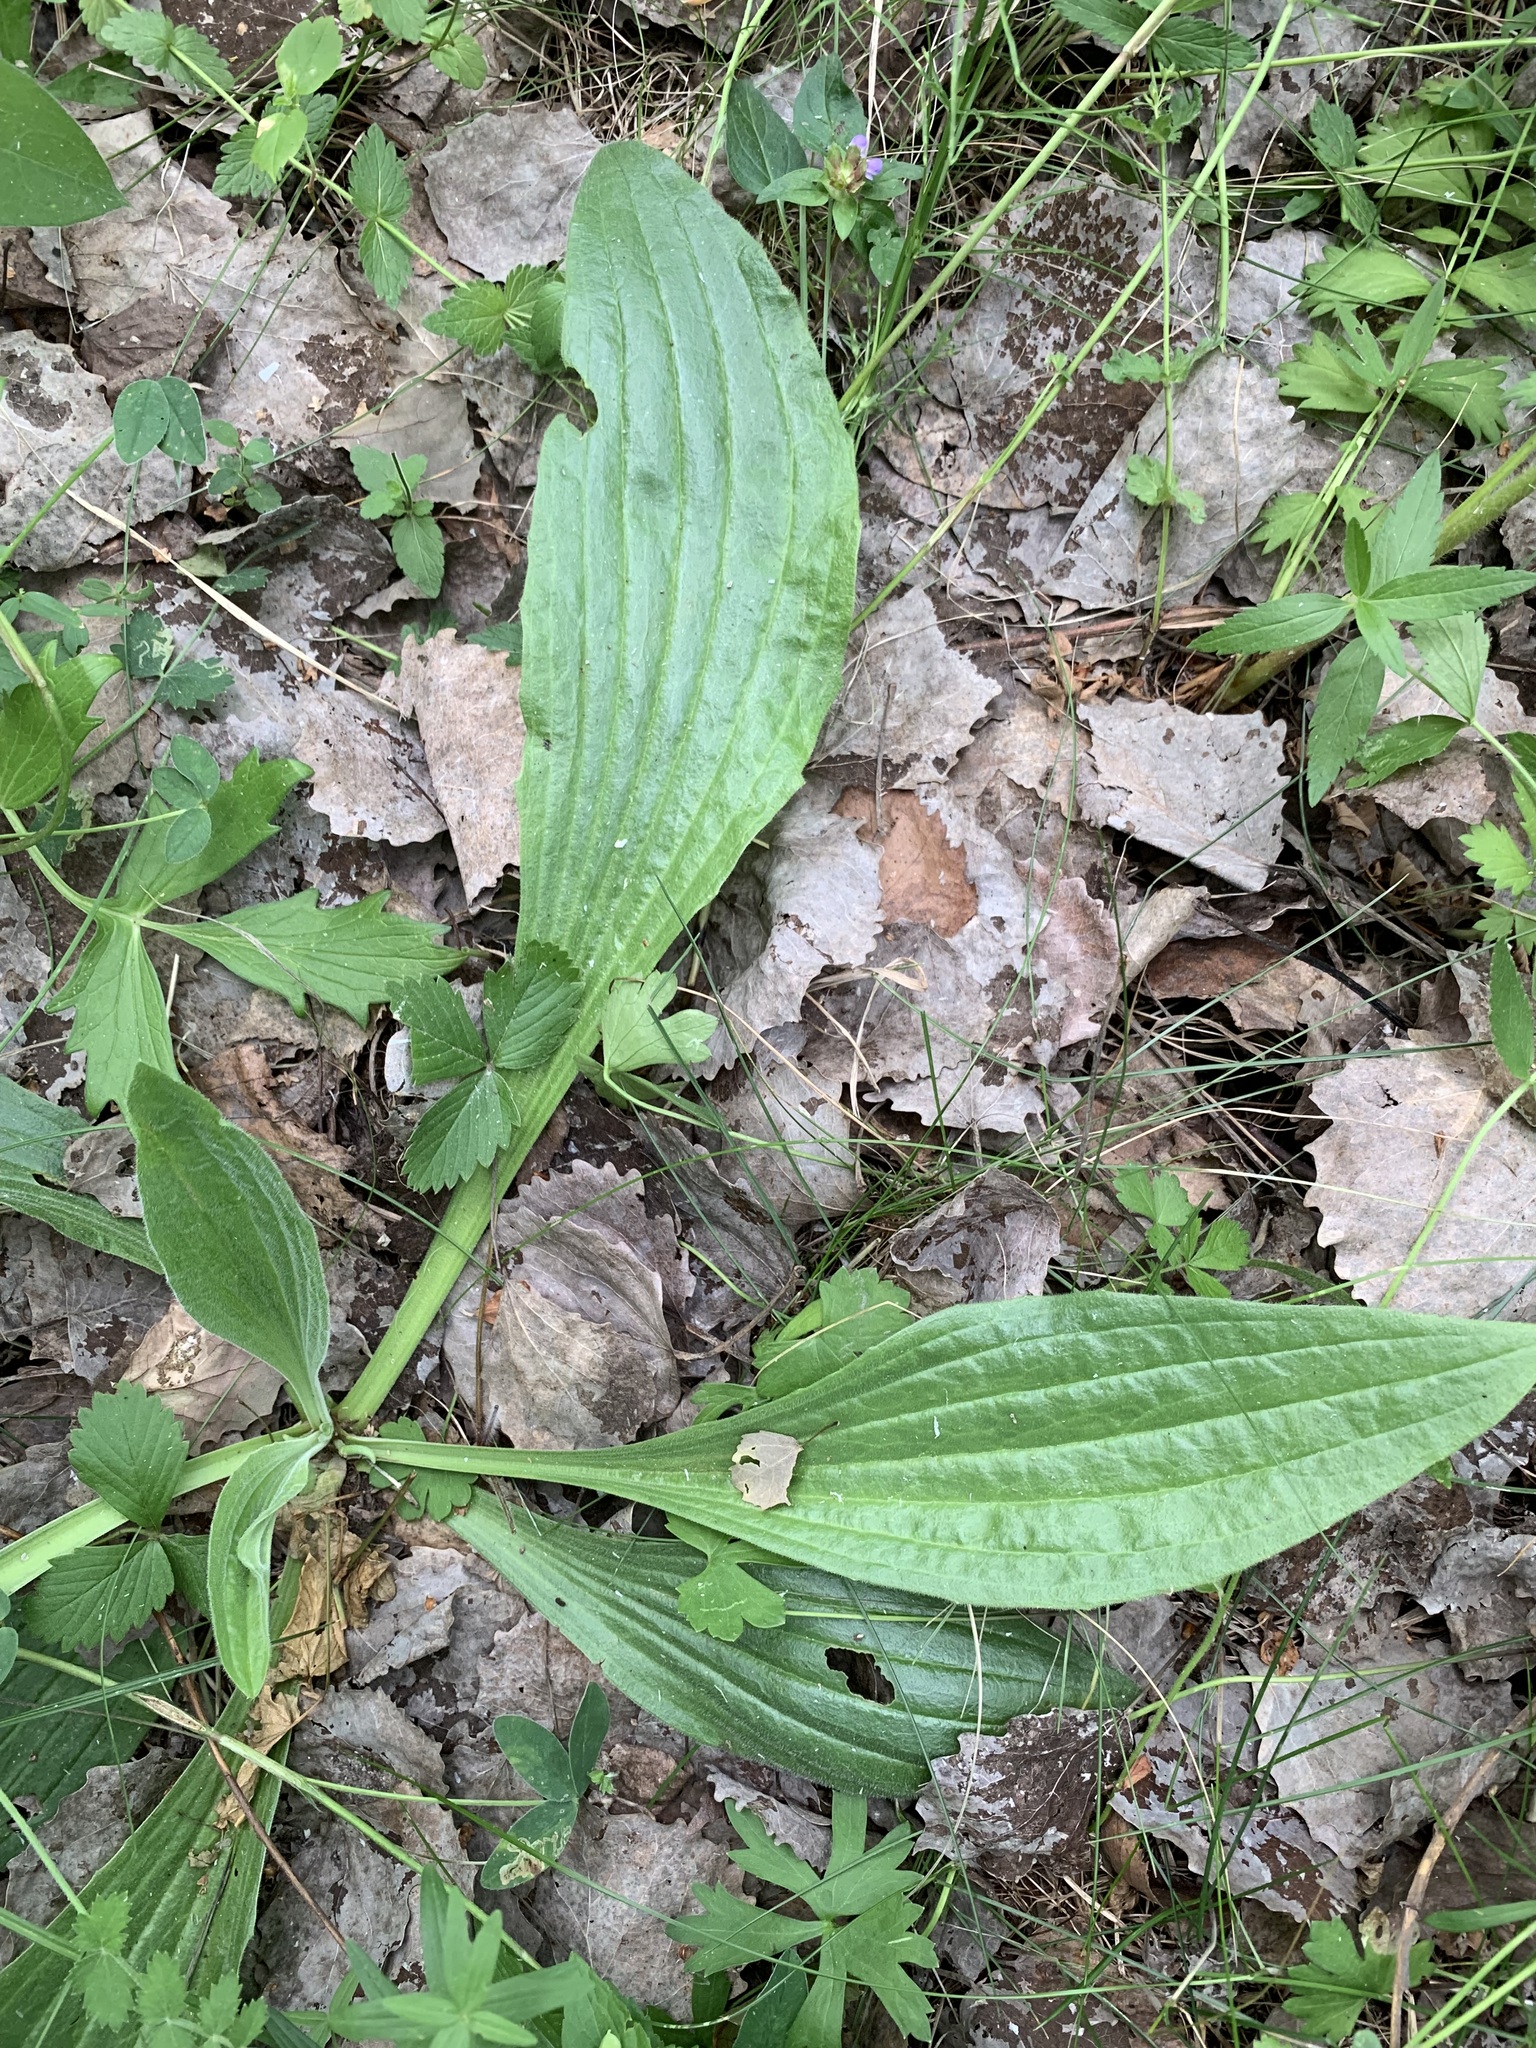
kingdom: Plantae
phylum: Tracheophyta
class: Magnoliopsida
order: Lamiales
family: Plantaginaceae
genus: Plantago
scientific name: Plantago urvillei
